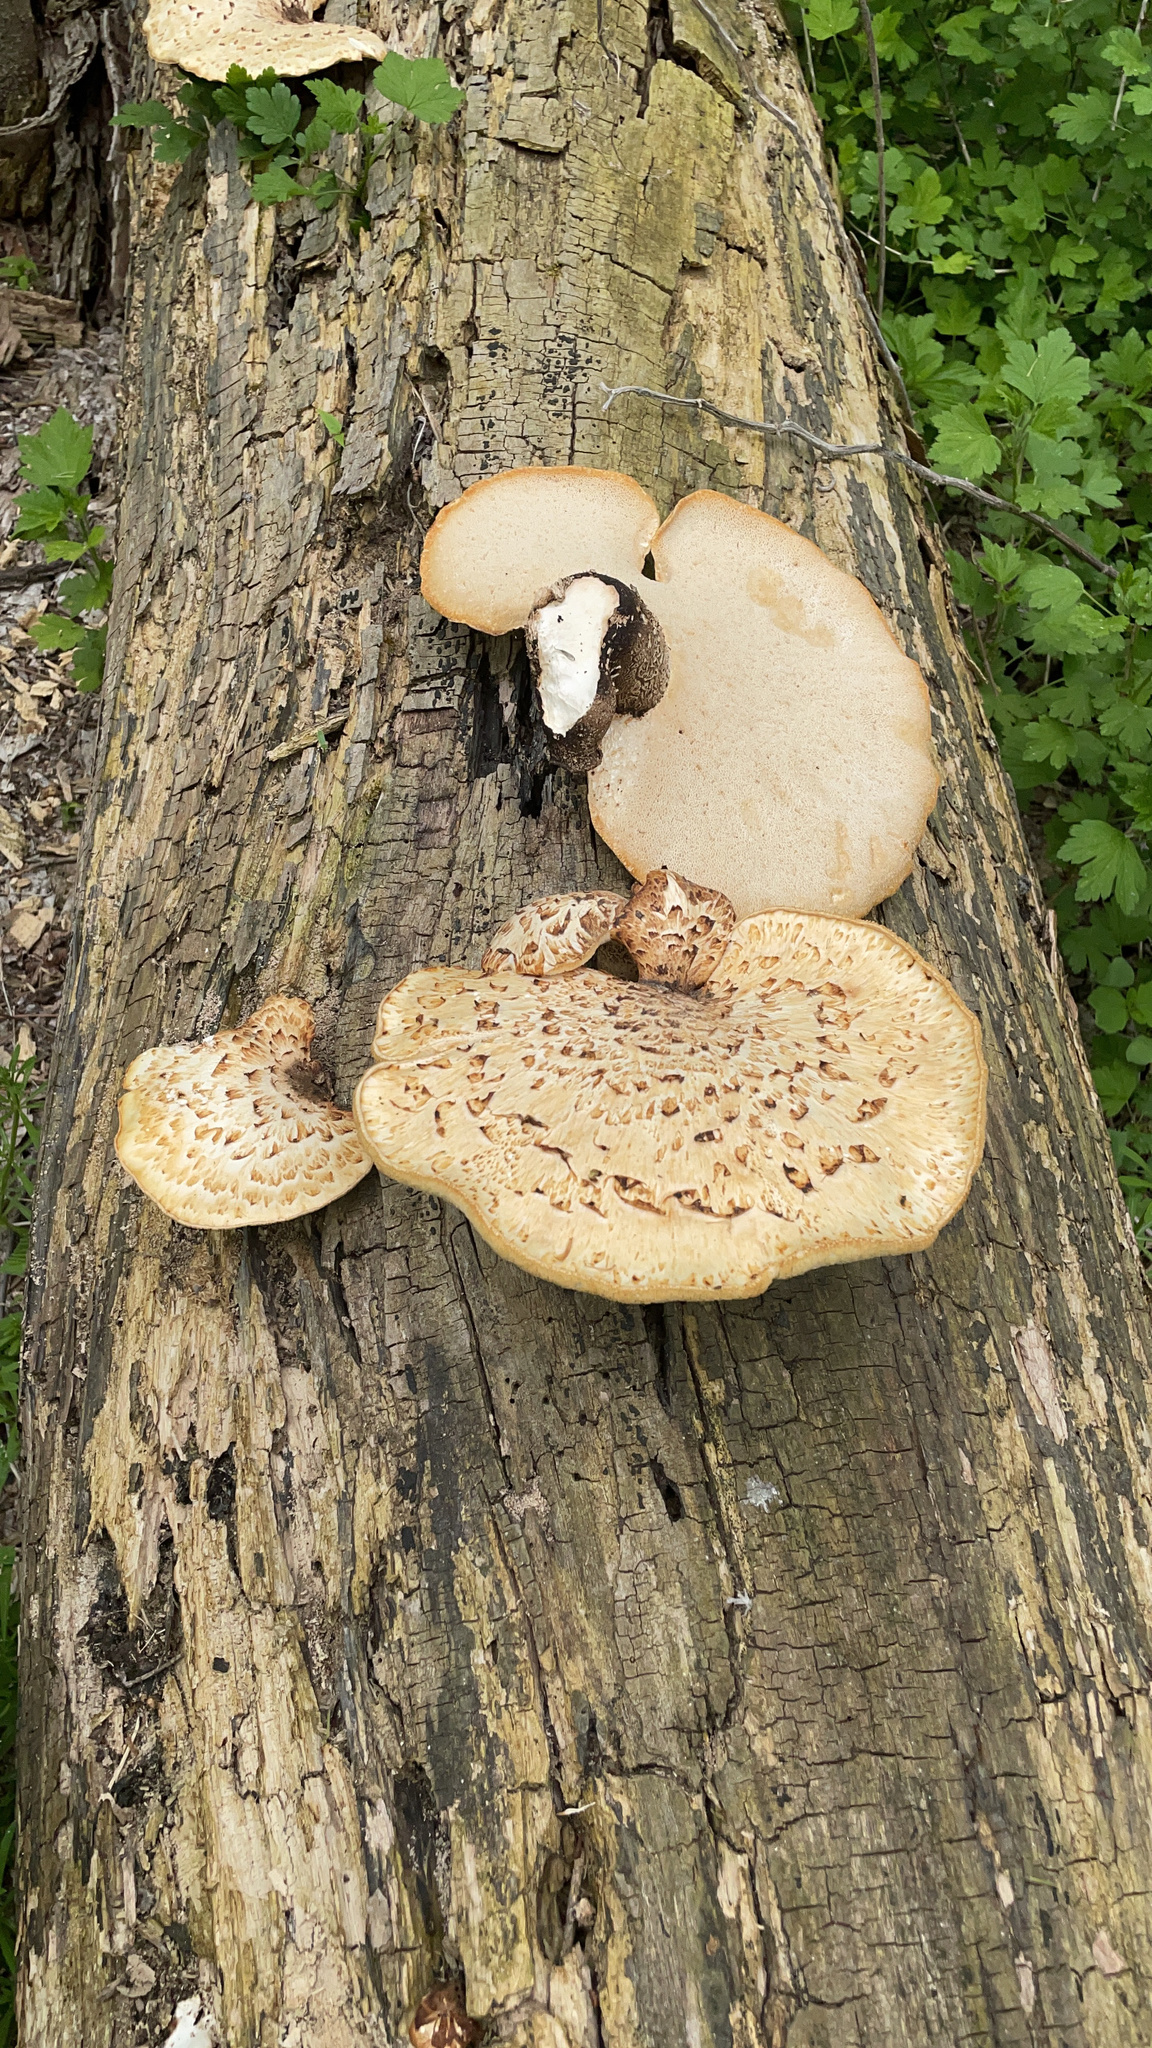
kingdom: Fungi
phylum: Basidiomycota
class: Agaricomycetes
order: Polyporales
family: Polyporaceae
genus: Cerioporus
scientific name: Cerioporus squamosus
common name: Dryad's saddle
